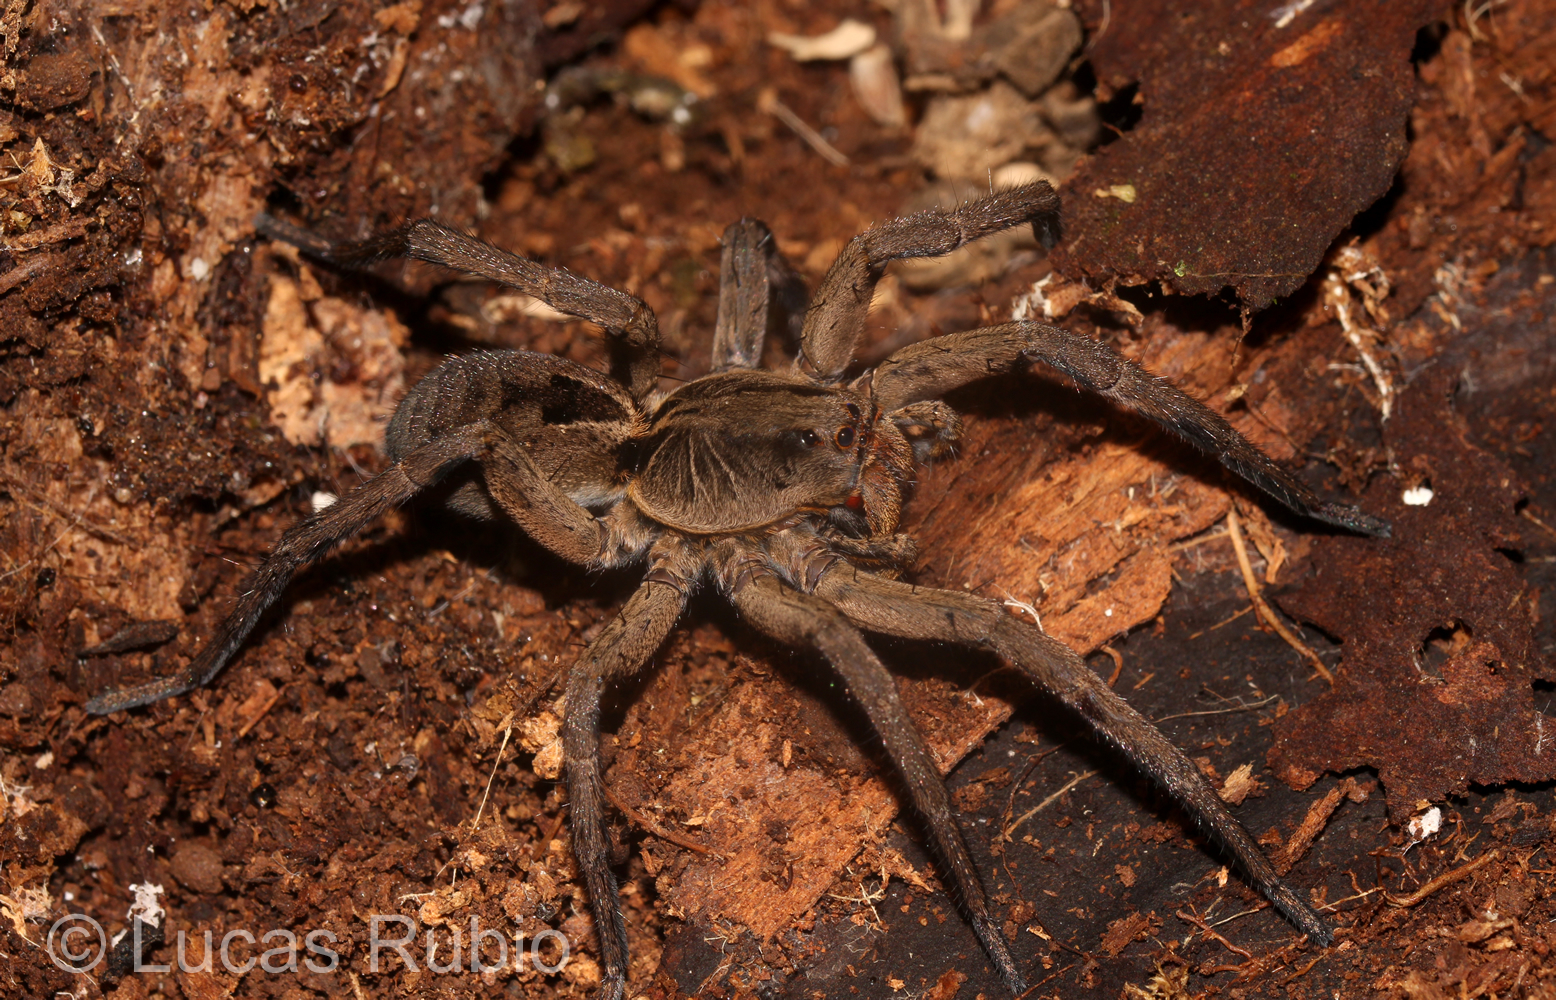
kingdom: Animalia
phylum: Arthropoda
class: Arachnida
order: Araneae
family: Lycosidae
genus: Lycosa
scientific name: Lycosa erythrognatha
